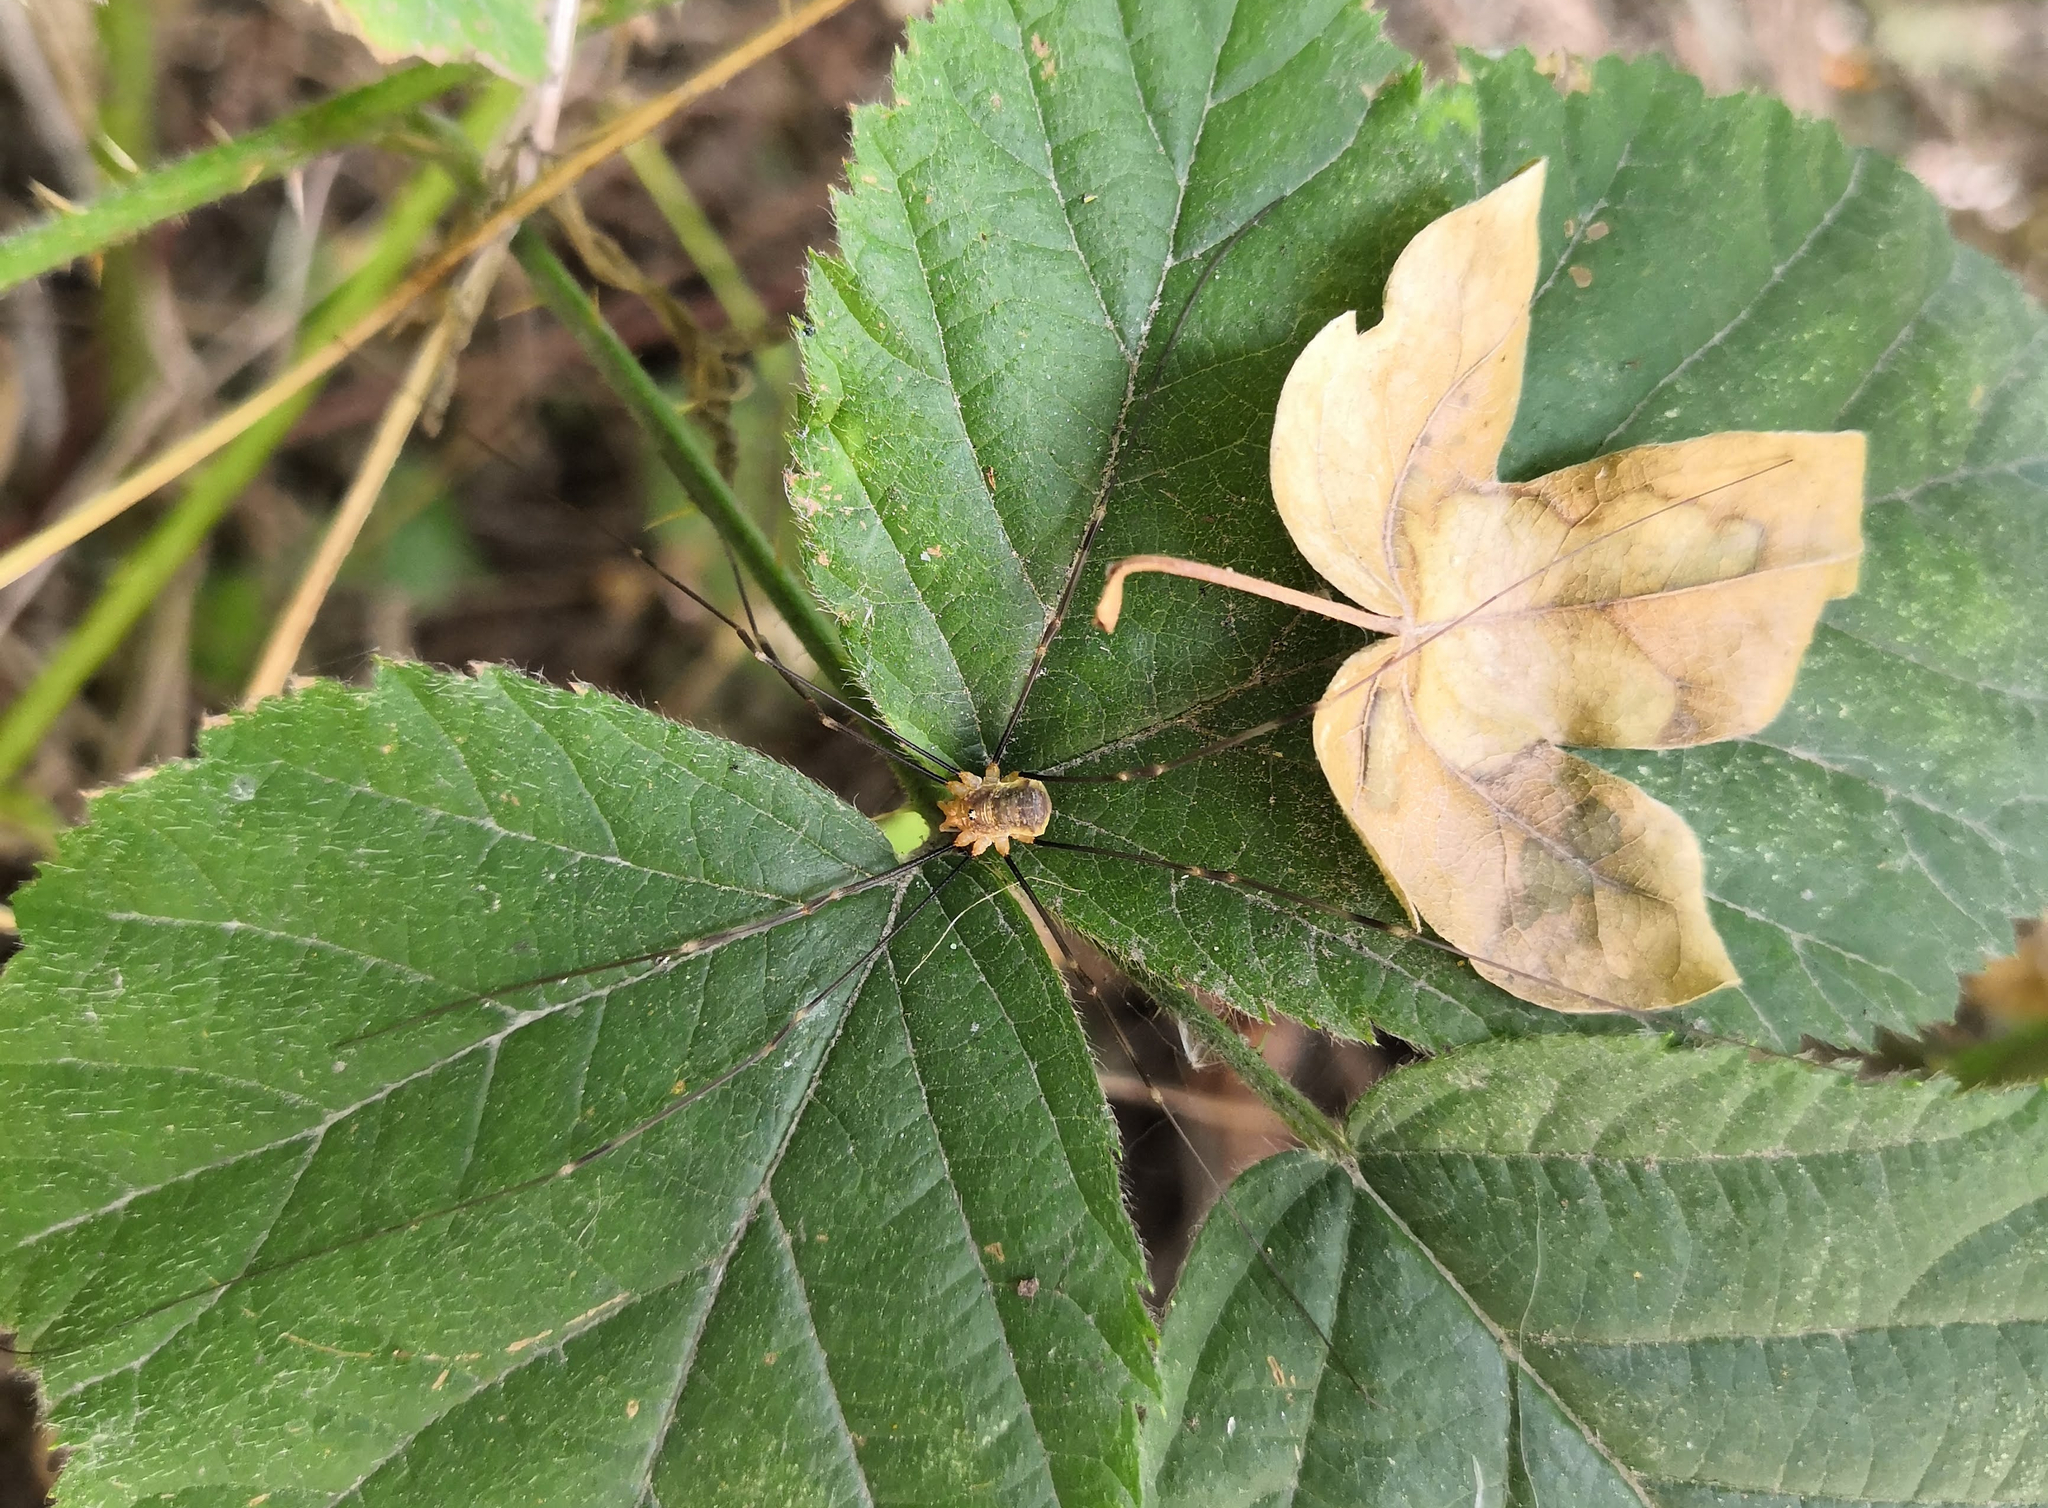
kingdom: Animalia
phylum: Arthropoda
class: Arachnida
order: Opiliones
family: Phalangiidae
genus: Opilio
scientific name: Opilio canestrinii
